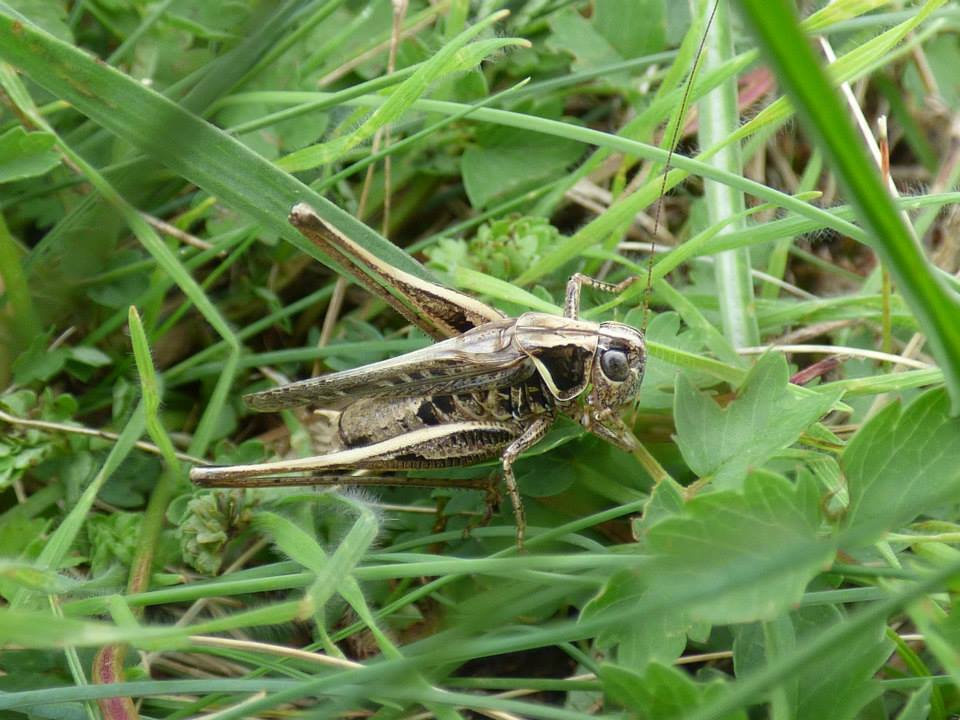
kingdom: Animalia
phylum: Arthropoda
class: Insecta
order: Orthoptera
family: Tettigoniidae
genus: Montana
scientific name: Montana stricta
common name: Italian bush-cricket
